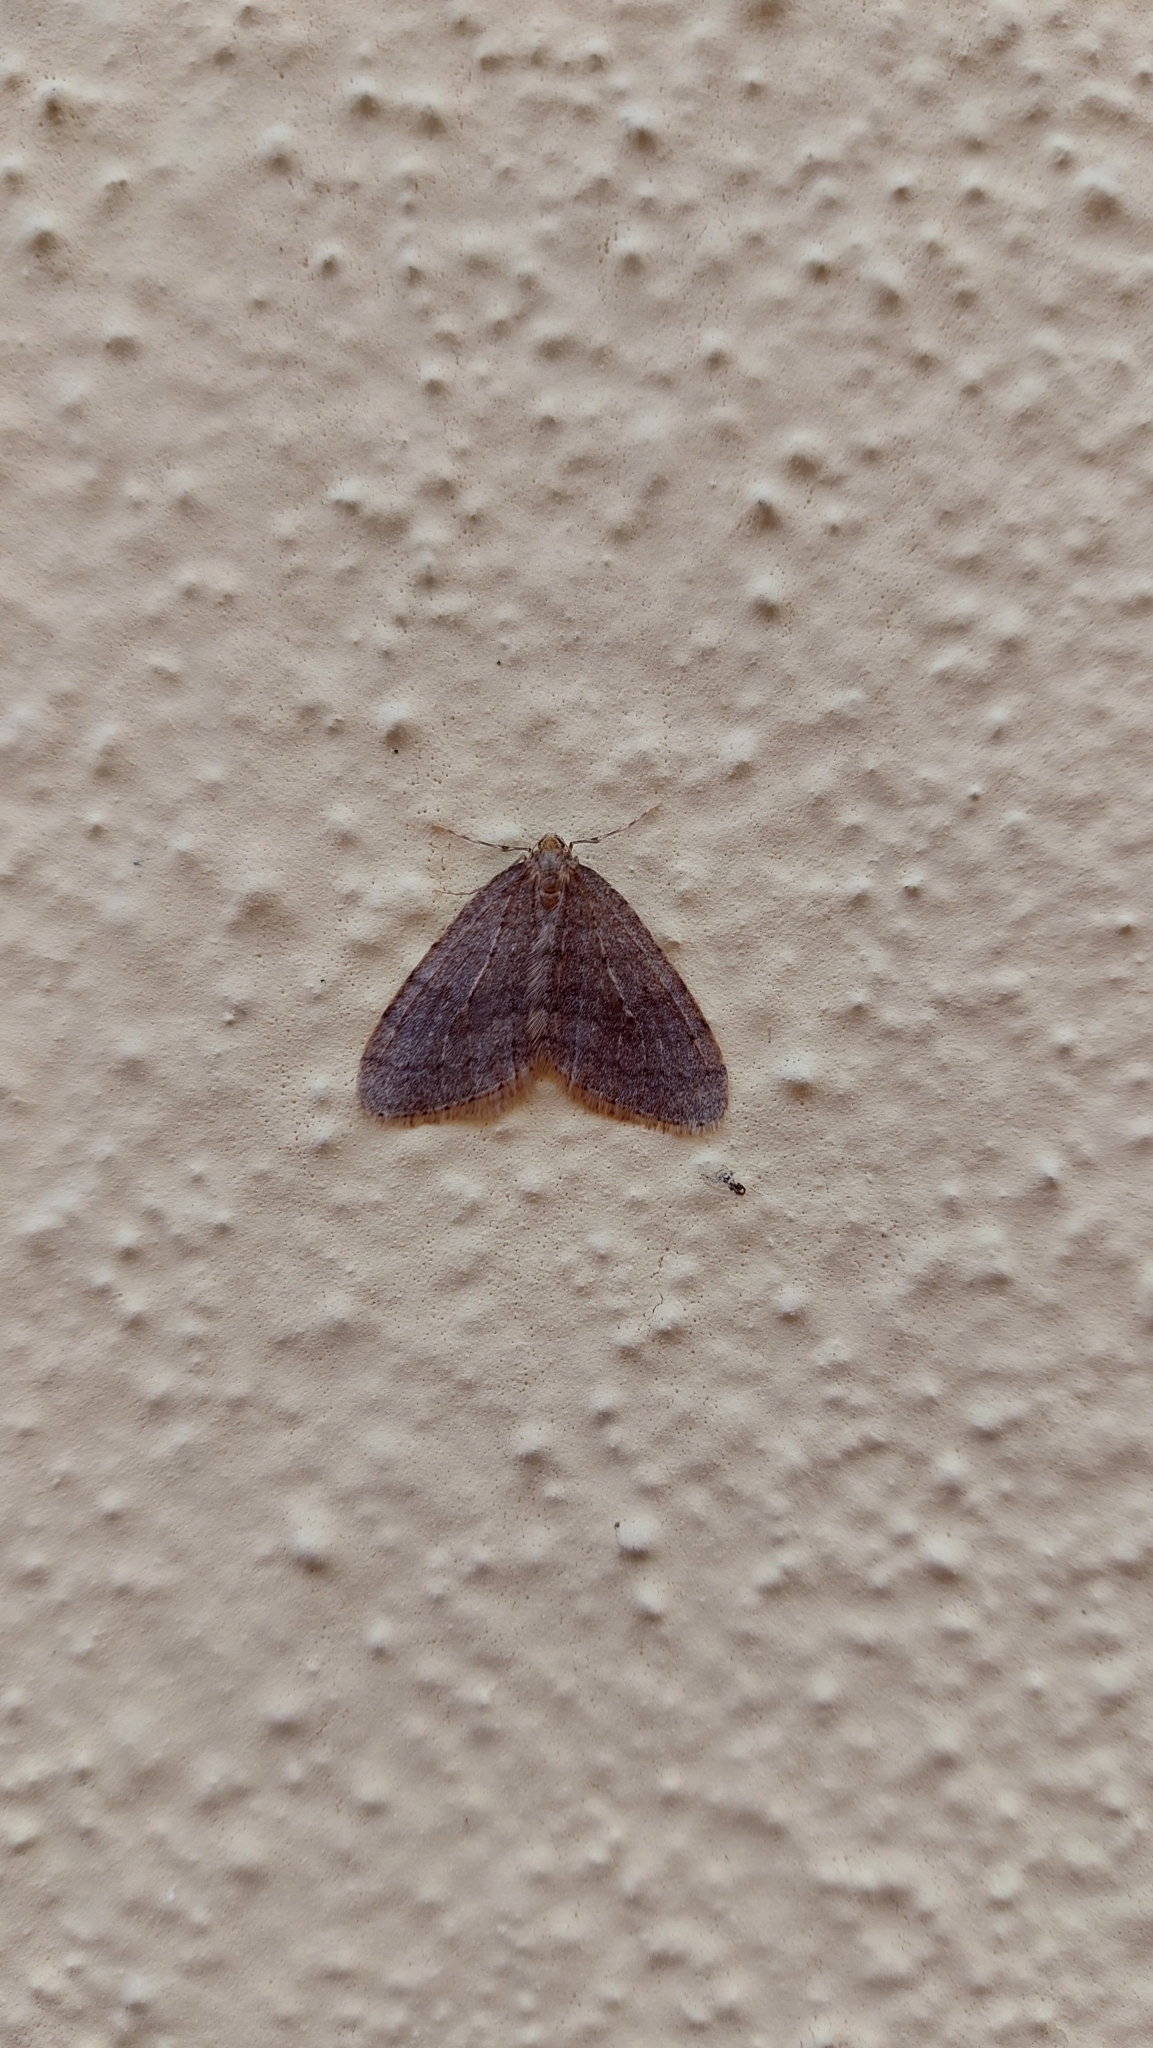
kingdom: Animalia
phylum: Arthropoda
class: Insecta
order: Lepidoptera
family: Geometridae
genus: Operophtera
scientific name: Operophtera brumata
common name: Winter moth
